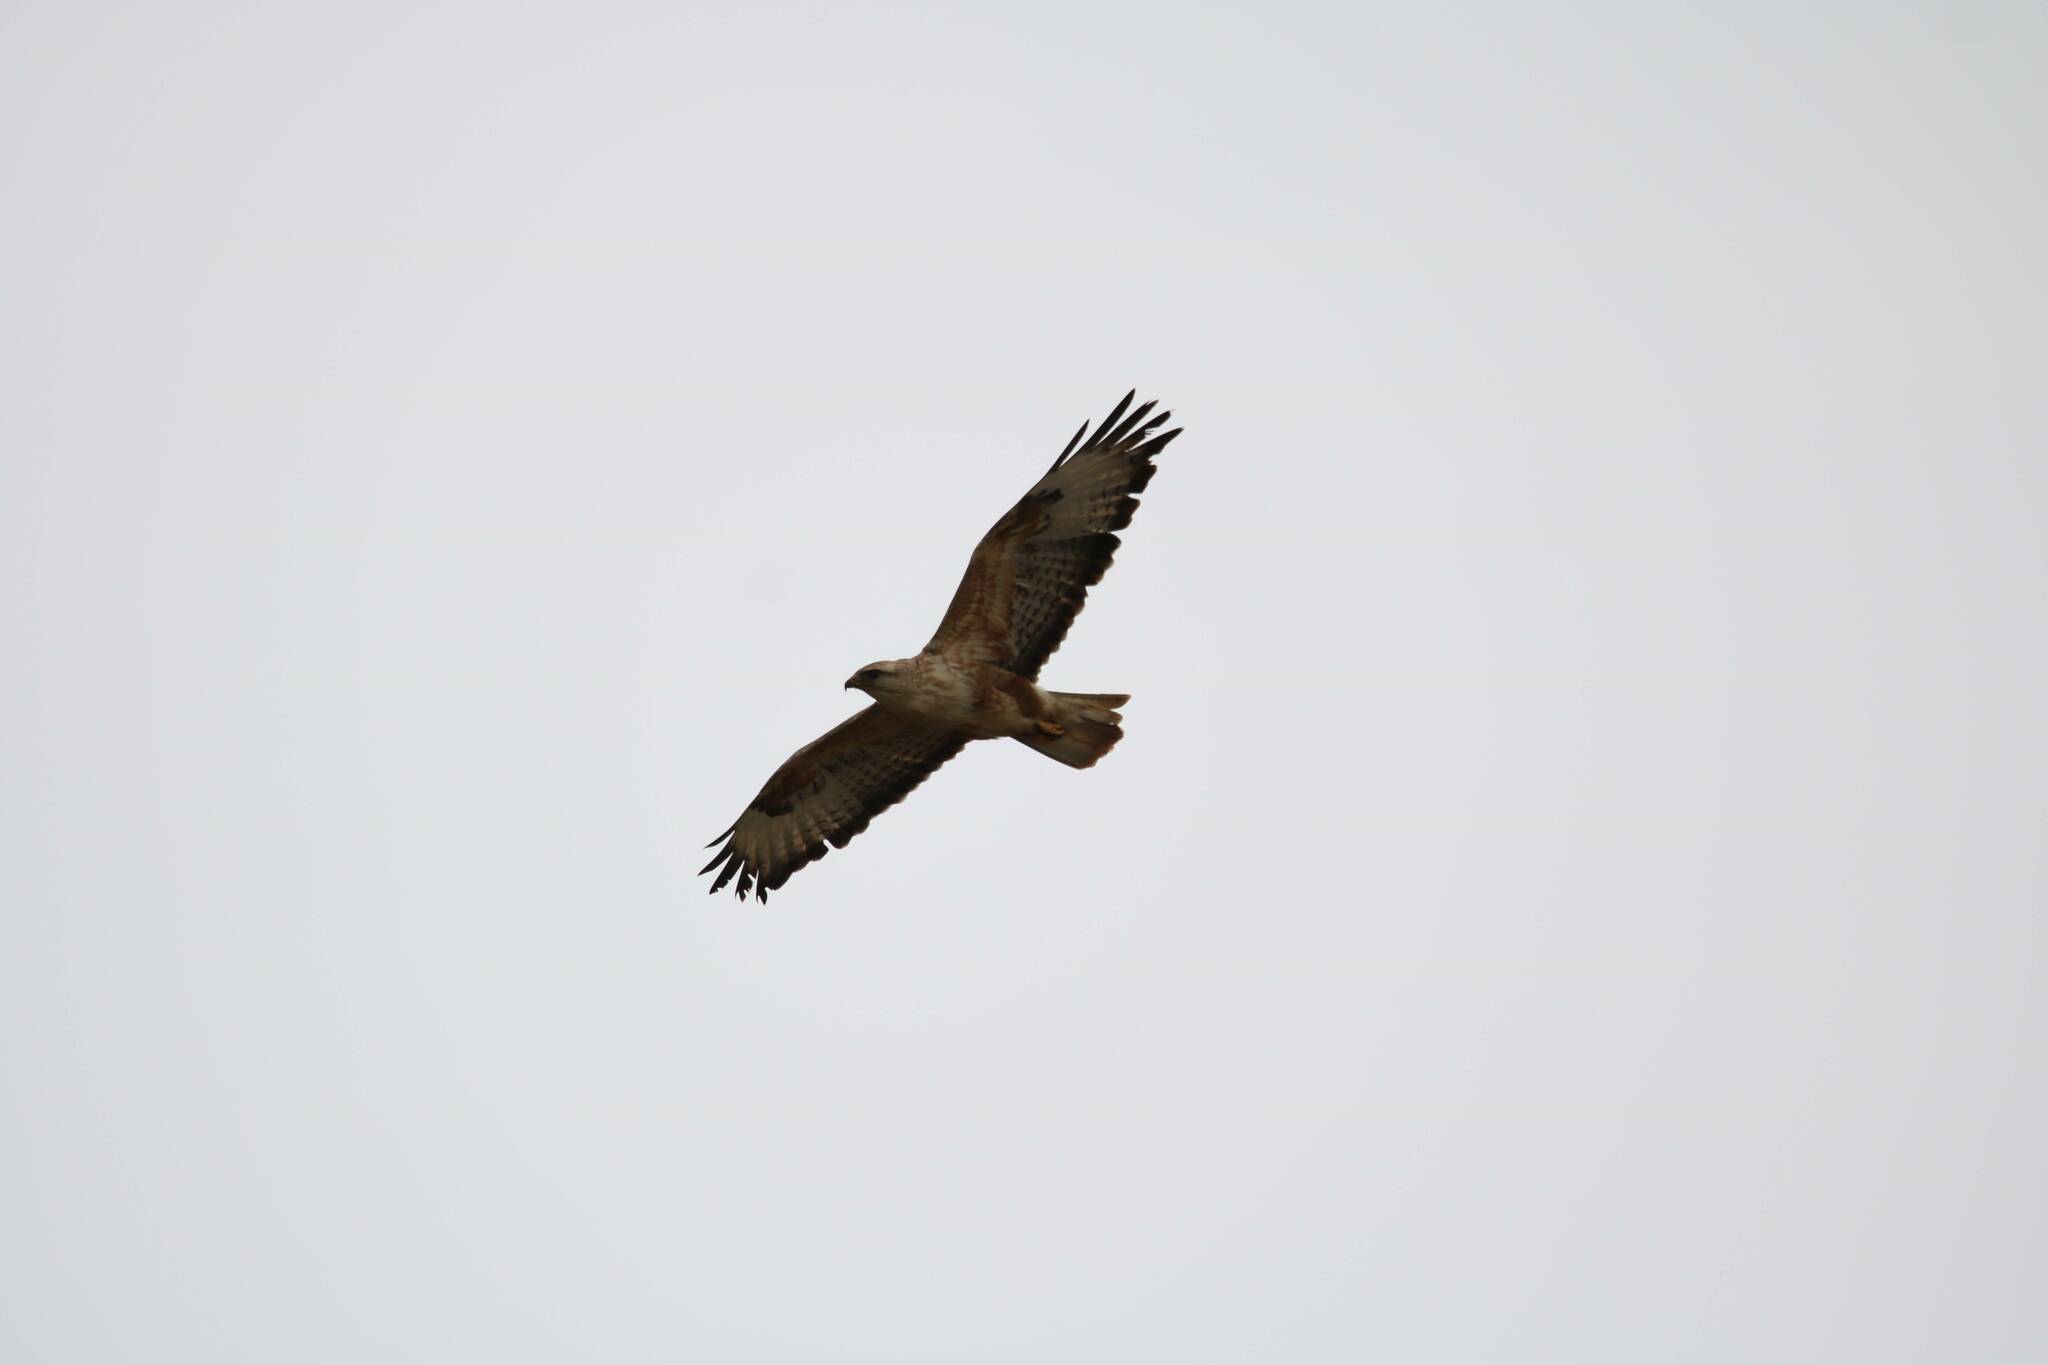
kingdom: Animalia
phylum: Chordata
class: Aves
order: Accipitriformes
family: Accipitridae
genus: Buteo
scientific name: Buteo rufinus
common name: Long-legged buzzard
